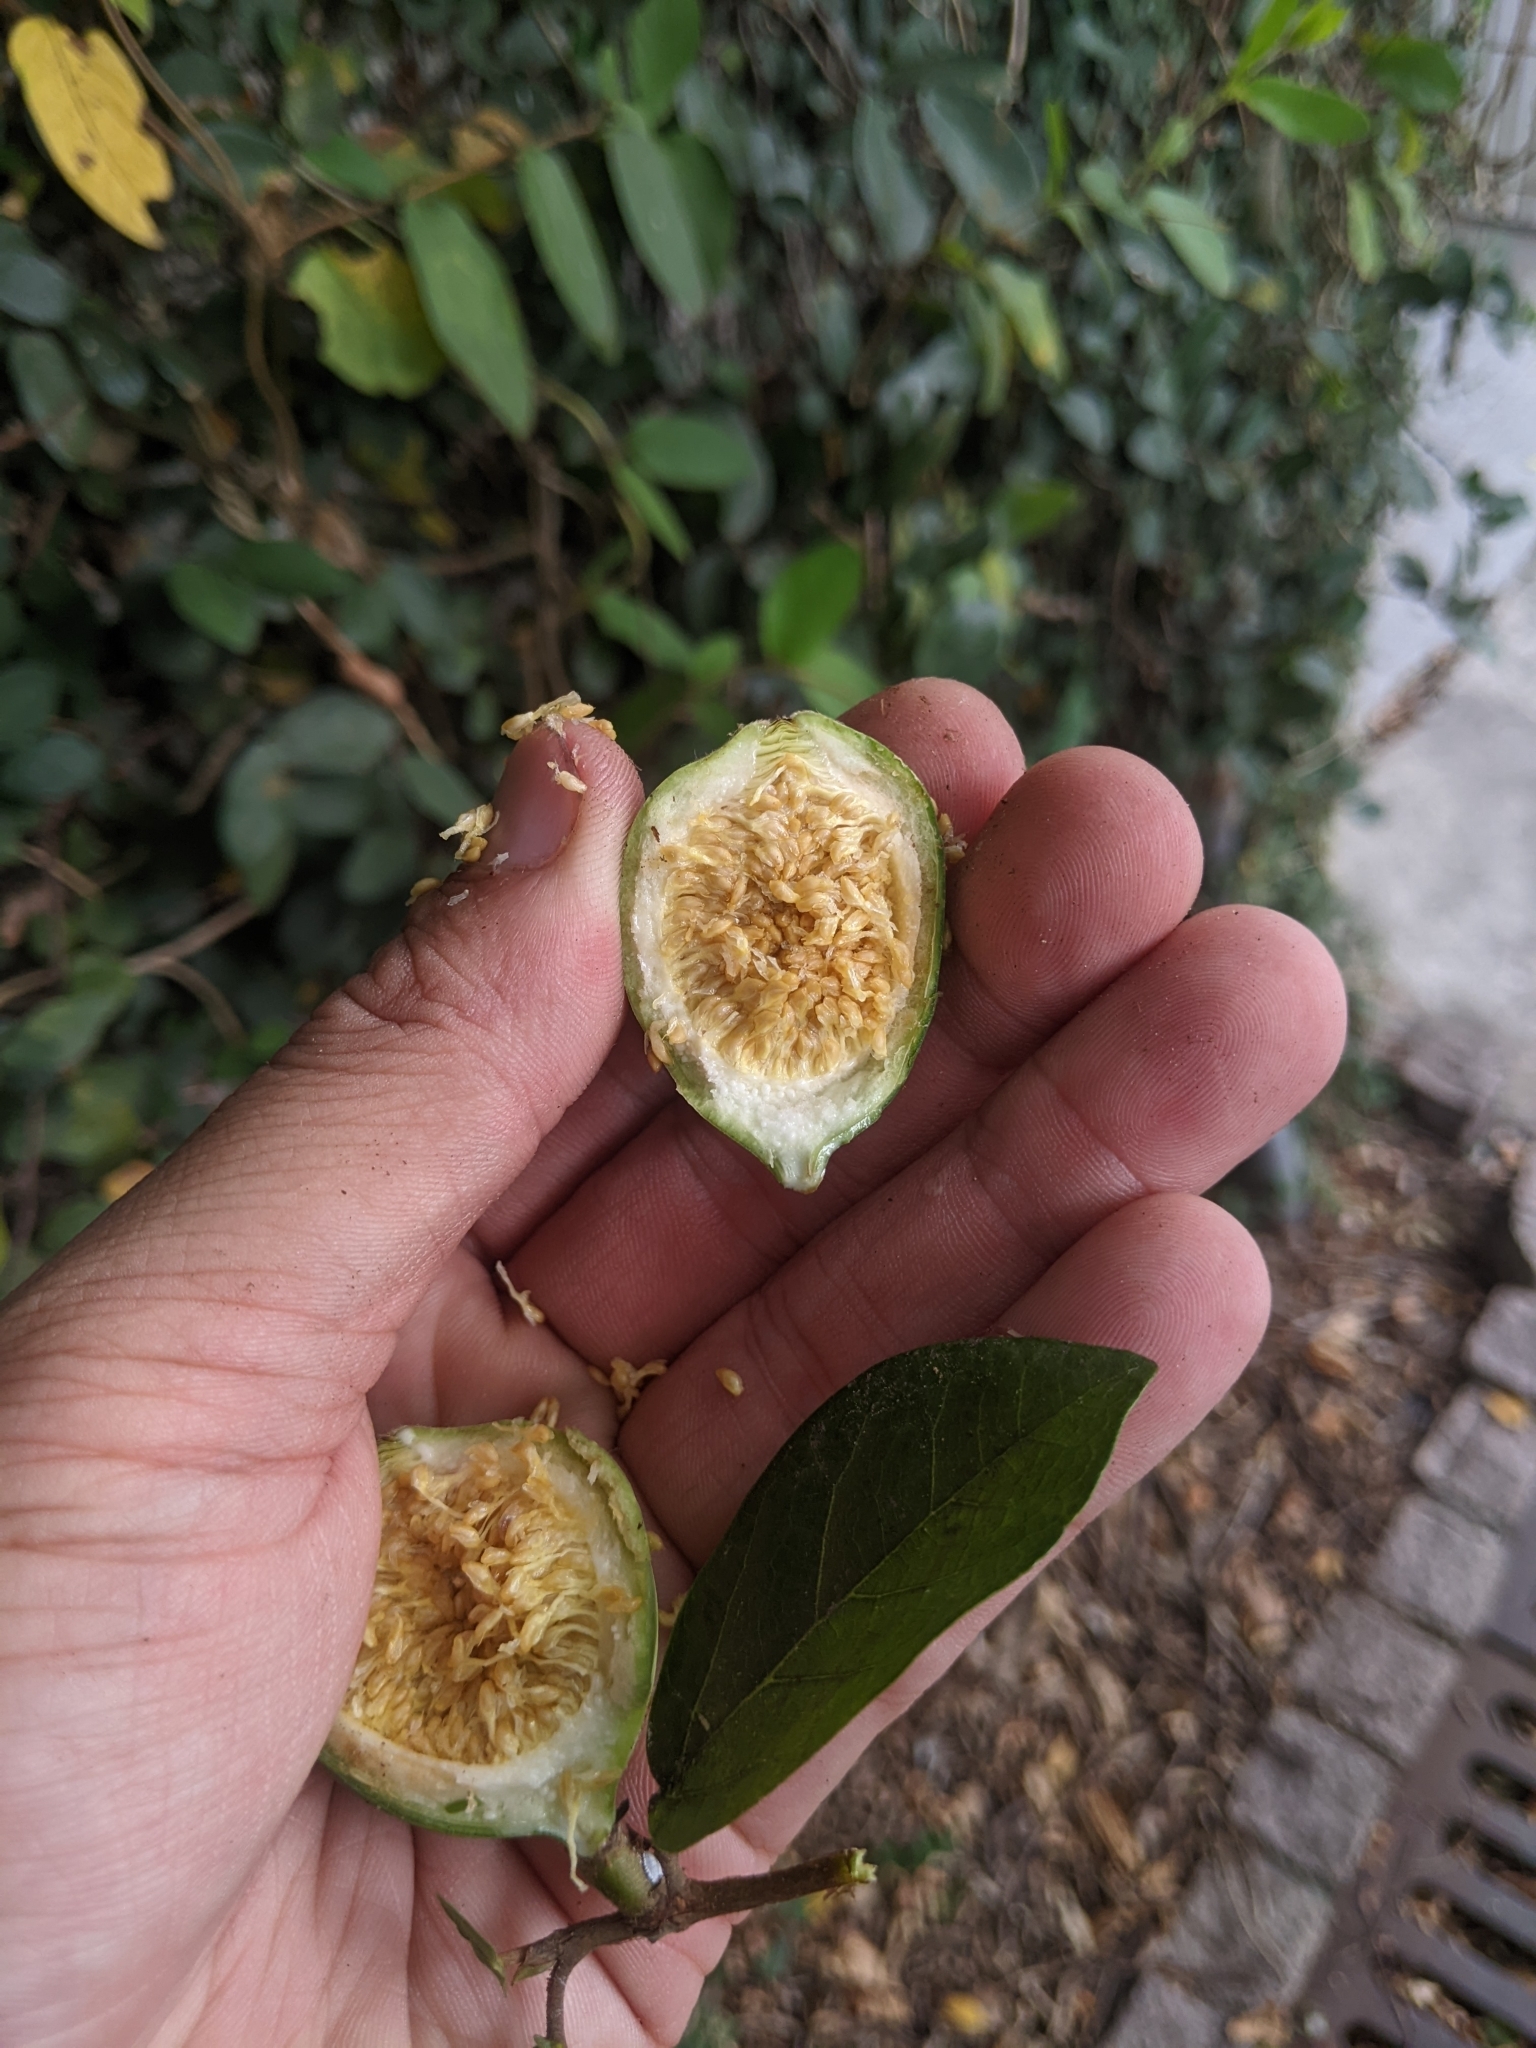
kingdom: Plantae
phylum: Tracheophyta
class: Magnoliopsida
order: Rosales
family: Moraceae
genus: Ficus
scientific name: Ficus pumila
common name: Climbingfig
